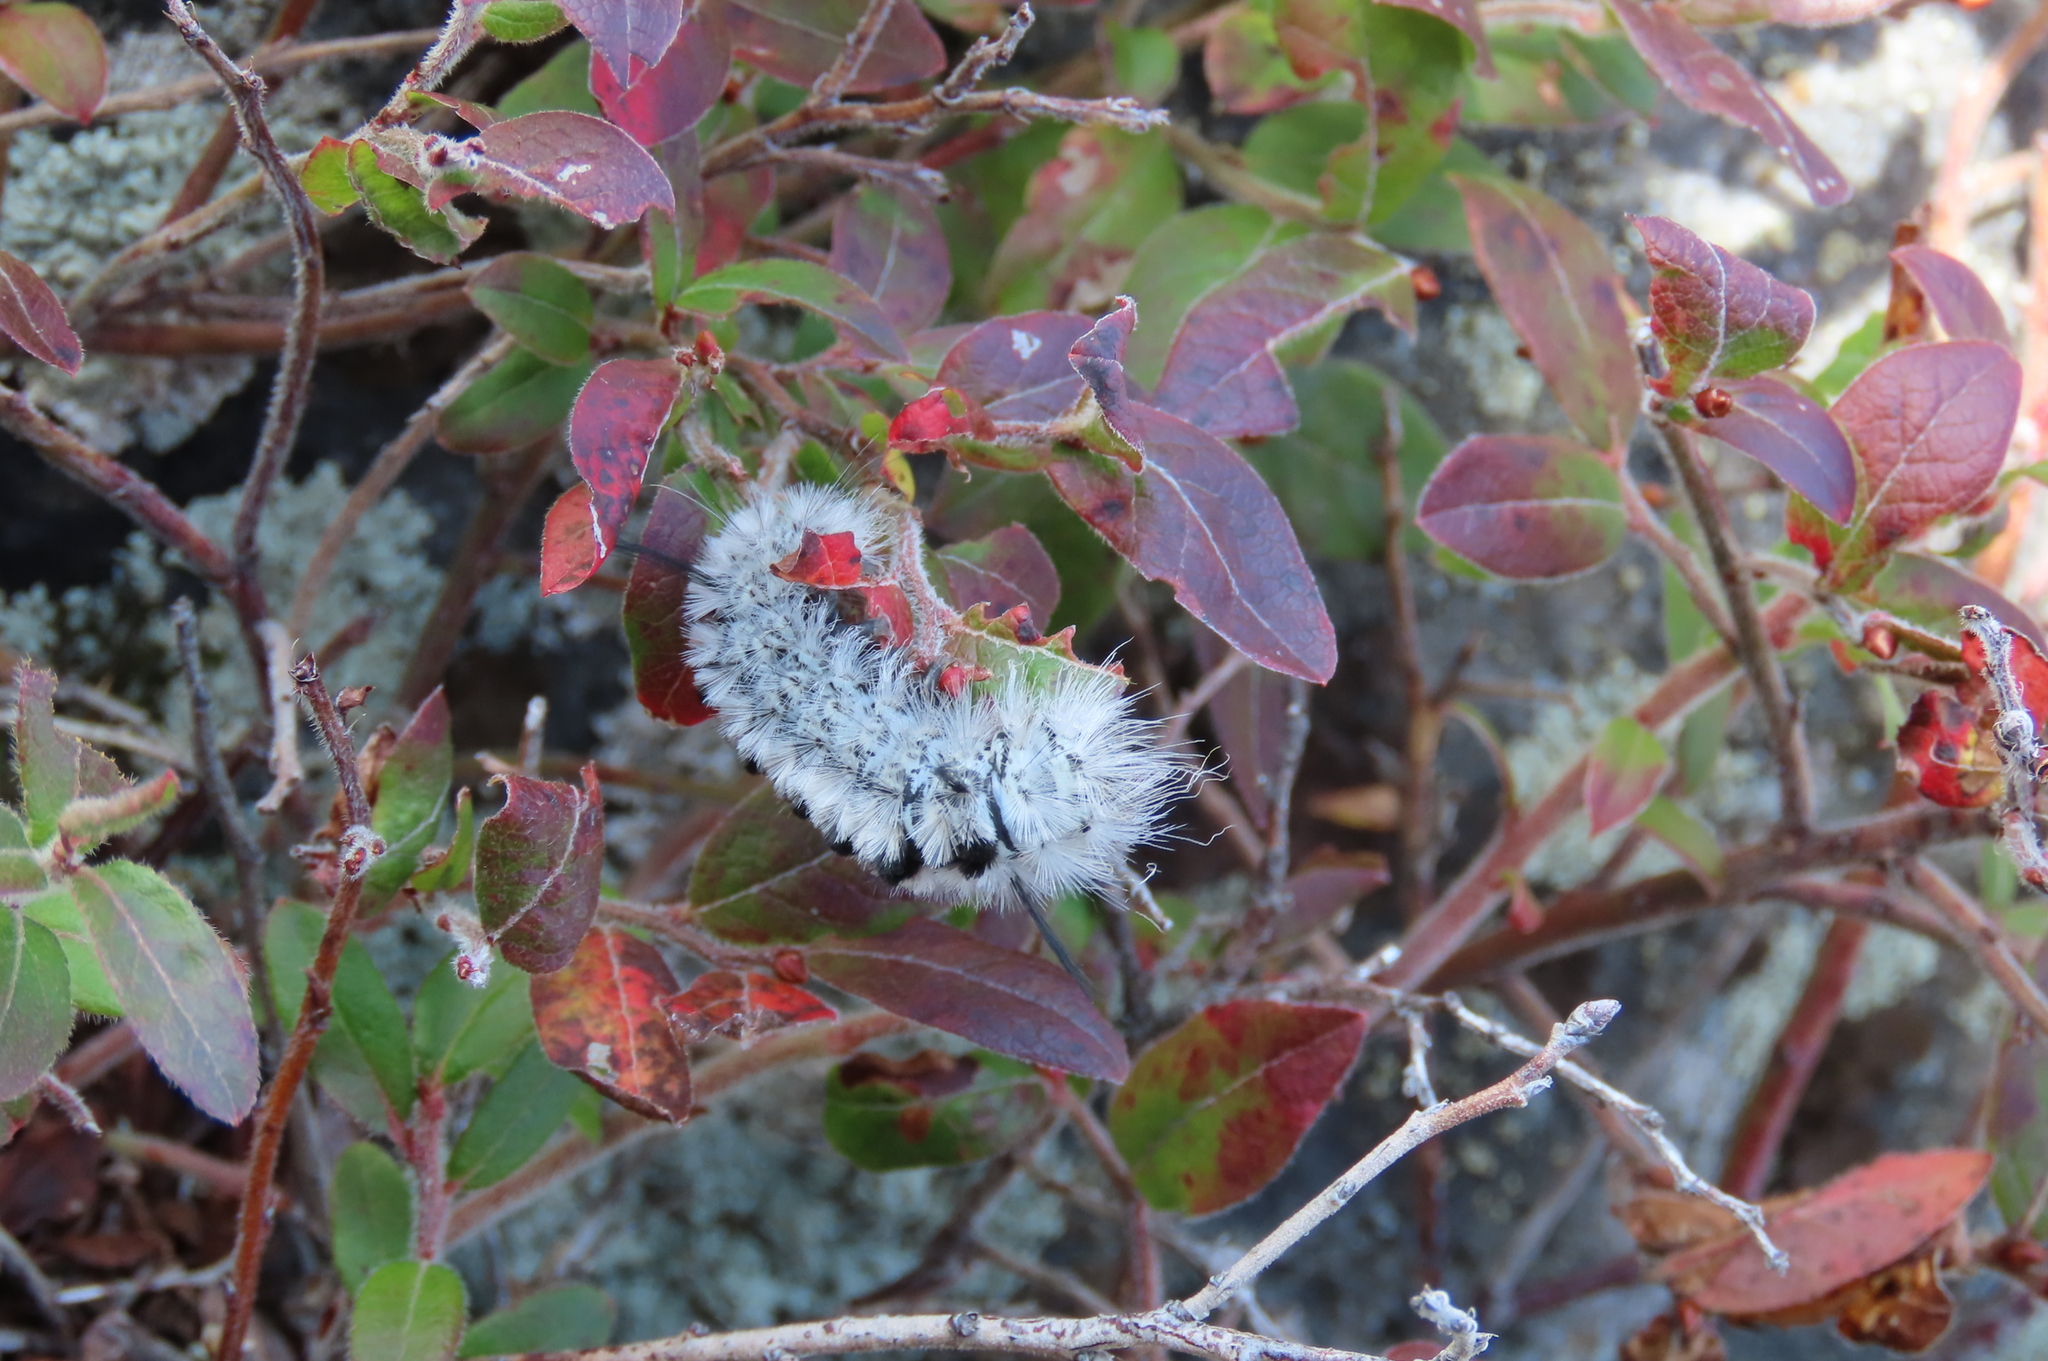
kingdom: Animalia
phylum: Arthropoda
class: Insecta
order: Lepidoptera
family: Erebidae
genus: Lophocampa
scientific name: Lophocampa caryae
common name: Hickory tussock moth
